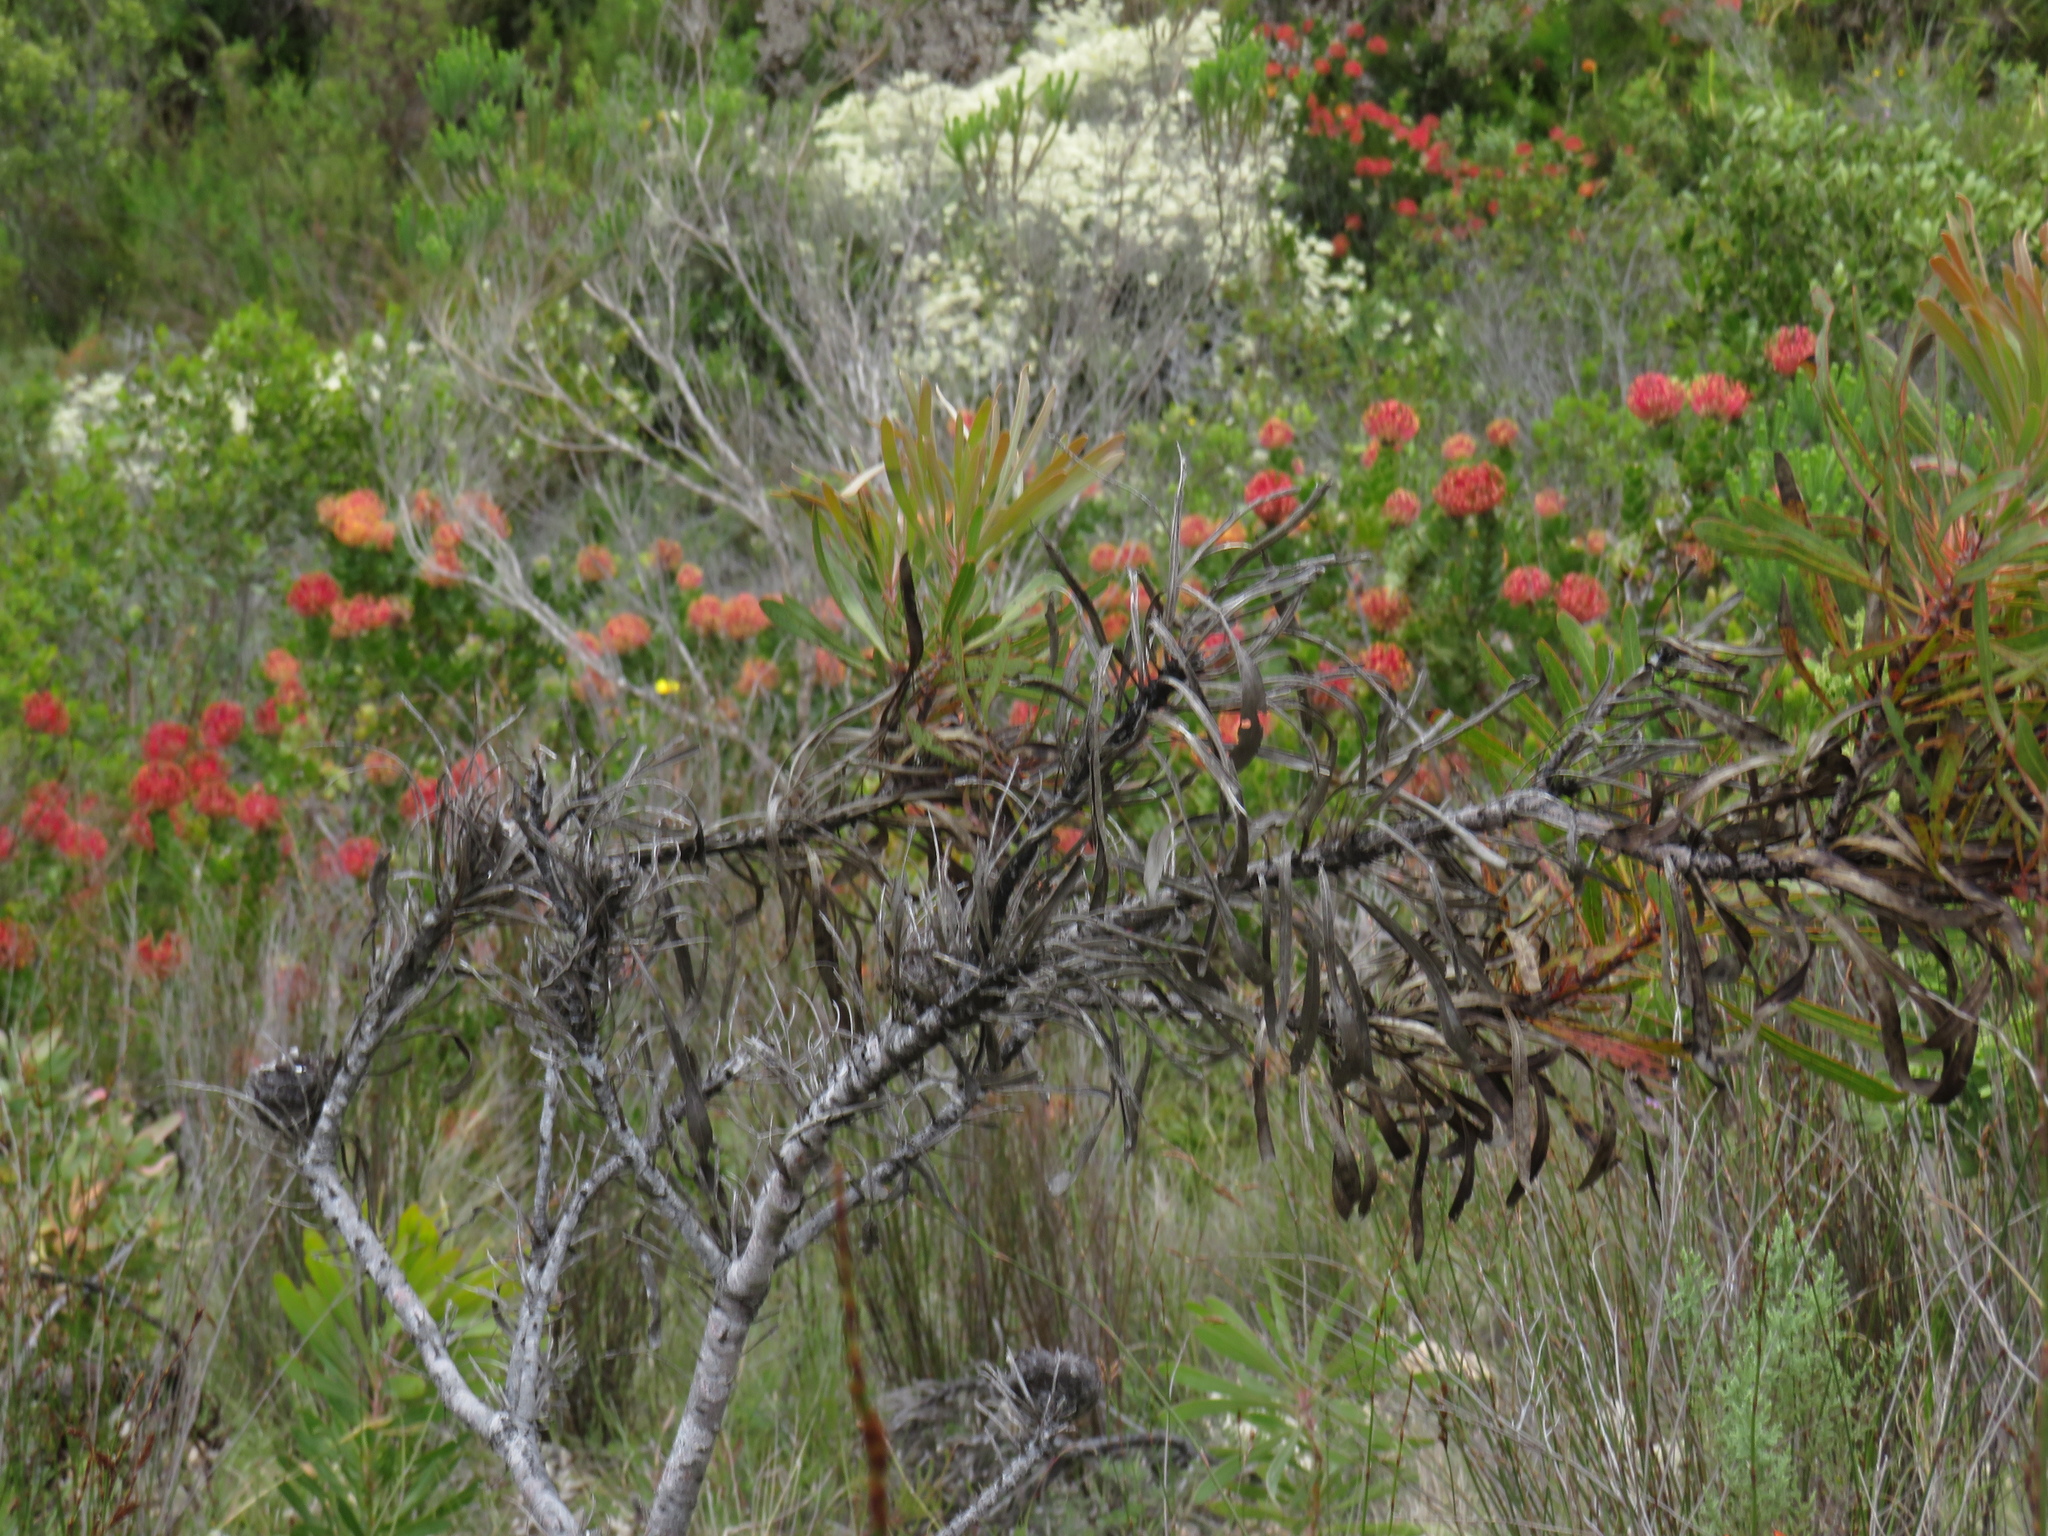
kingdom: Plantae
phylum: Tracheophyta
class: Magnoliopsida
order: Proteales
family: Proteaceae
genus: Protea
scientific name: Protea longifolia
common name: Long-leaf sugarbush
